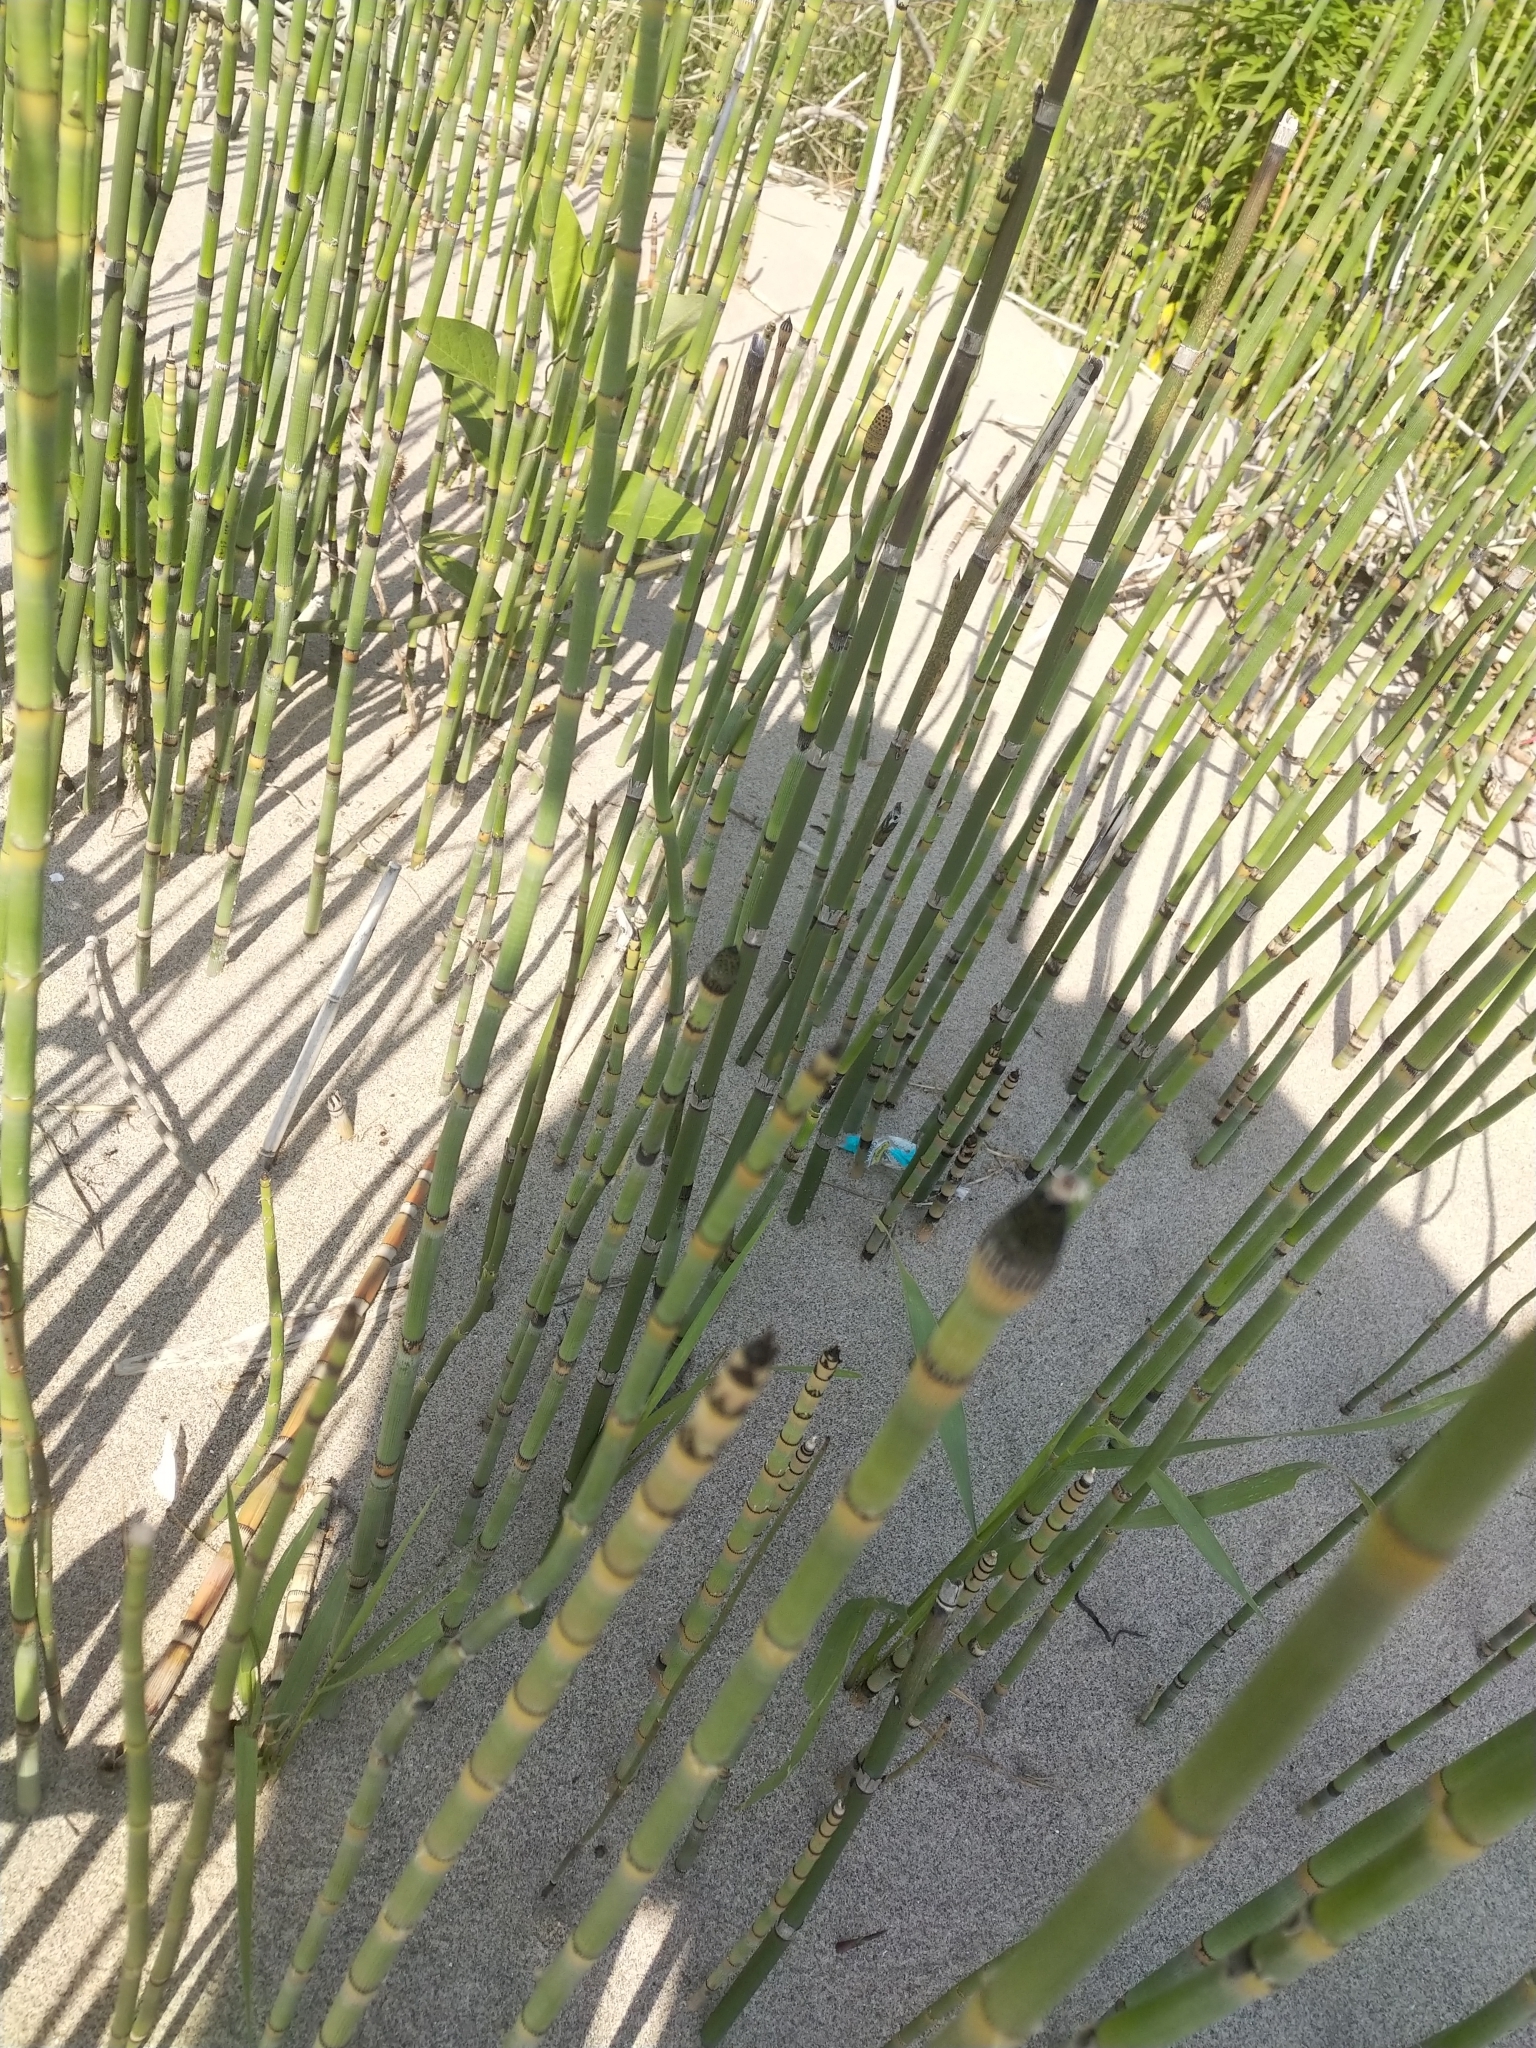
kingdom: Plantae
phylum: Tracheophyta
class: Polypodiopsida
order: Equisetales
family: Equisetaceae
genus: Equisetum
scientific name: Equisetum hyemale
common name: Rough horsetail
